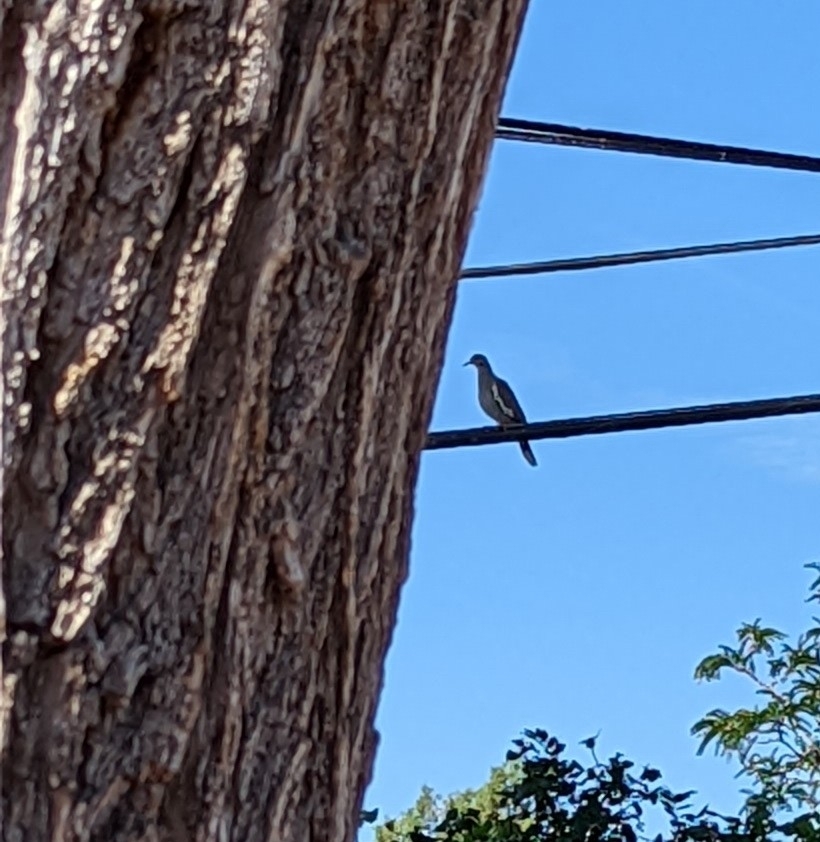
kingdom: Animalia
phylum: Chordata
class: Aves
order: Columbiformes
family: Columbidae
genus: Zenaida
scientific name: Zenaida asiatica
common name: White-winged dove
